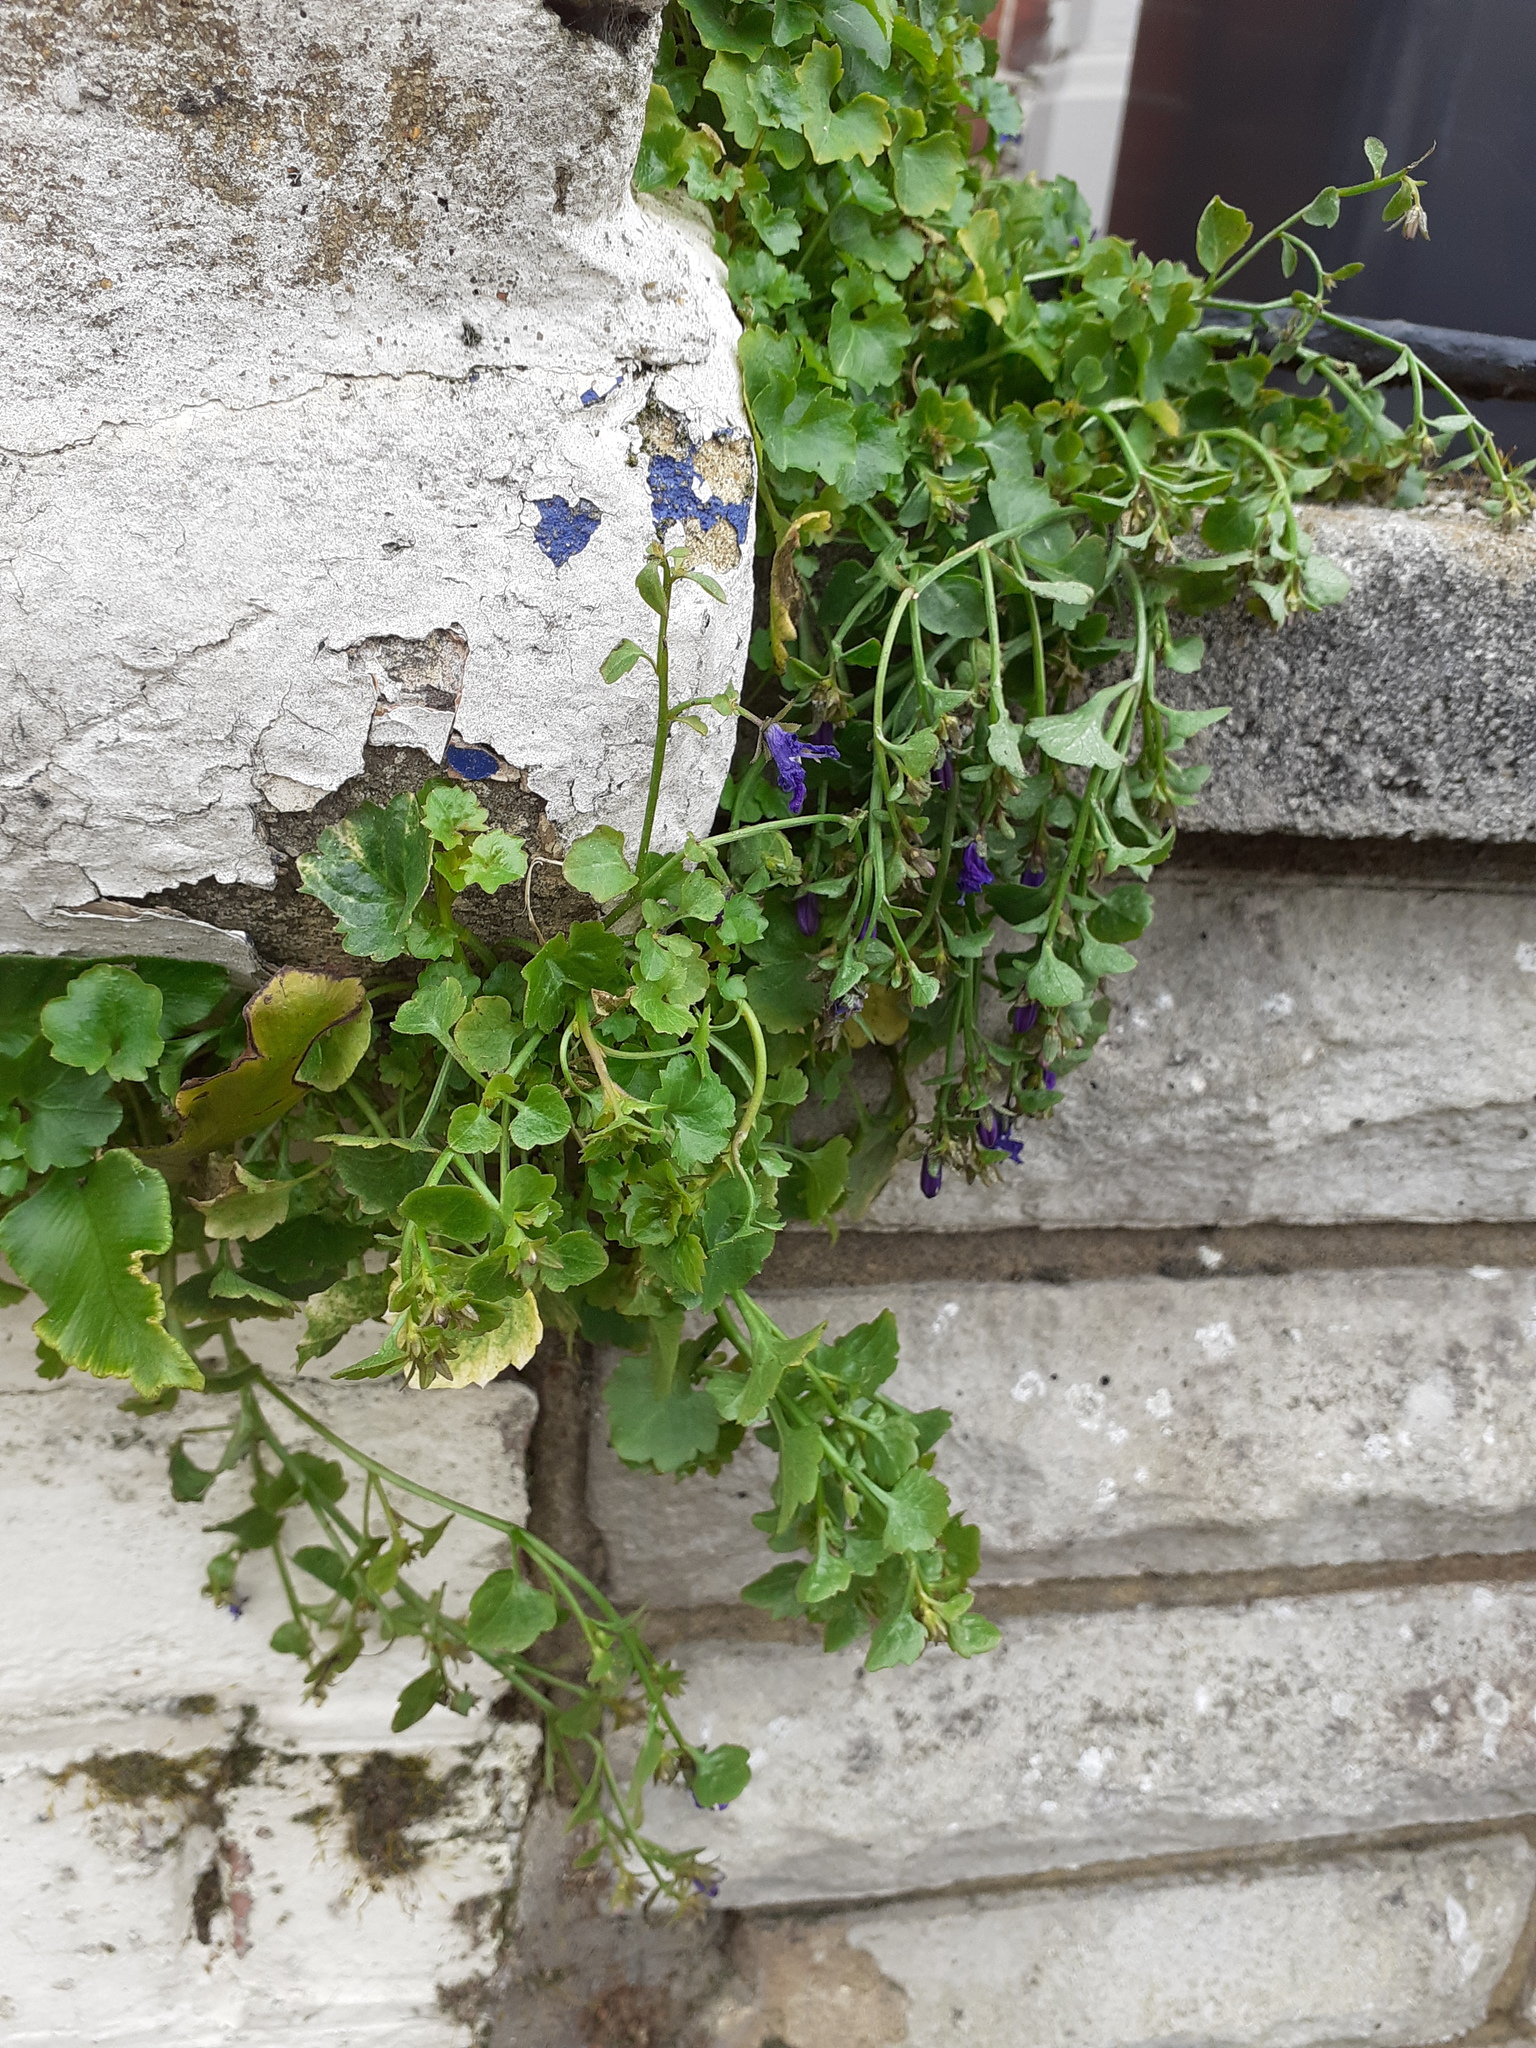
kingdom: Plantae
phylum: Tracheophyta
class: Magnoliopsida
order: Asterales
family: Campanulaceae
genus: Campanula
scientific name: Campanula portenschlagiana
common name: Adria bellflower
